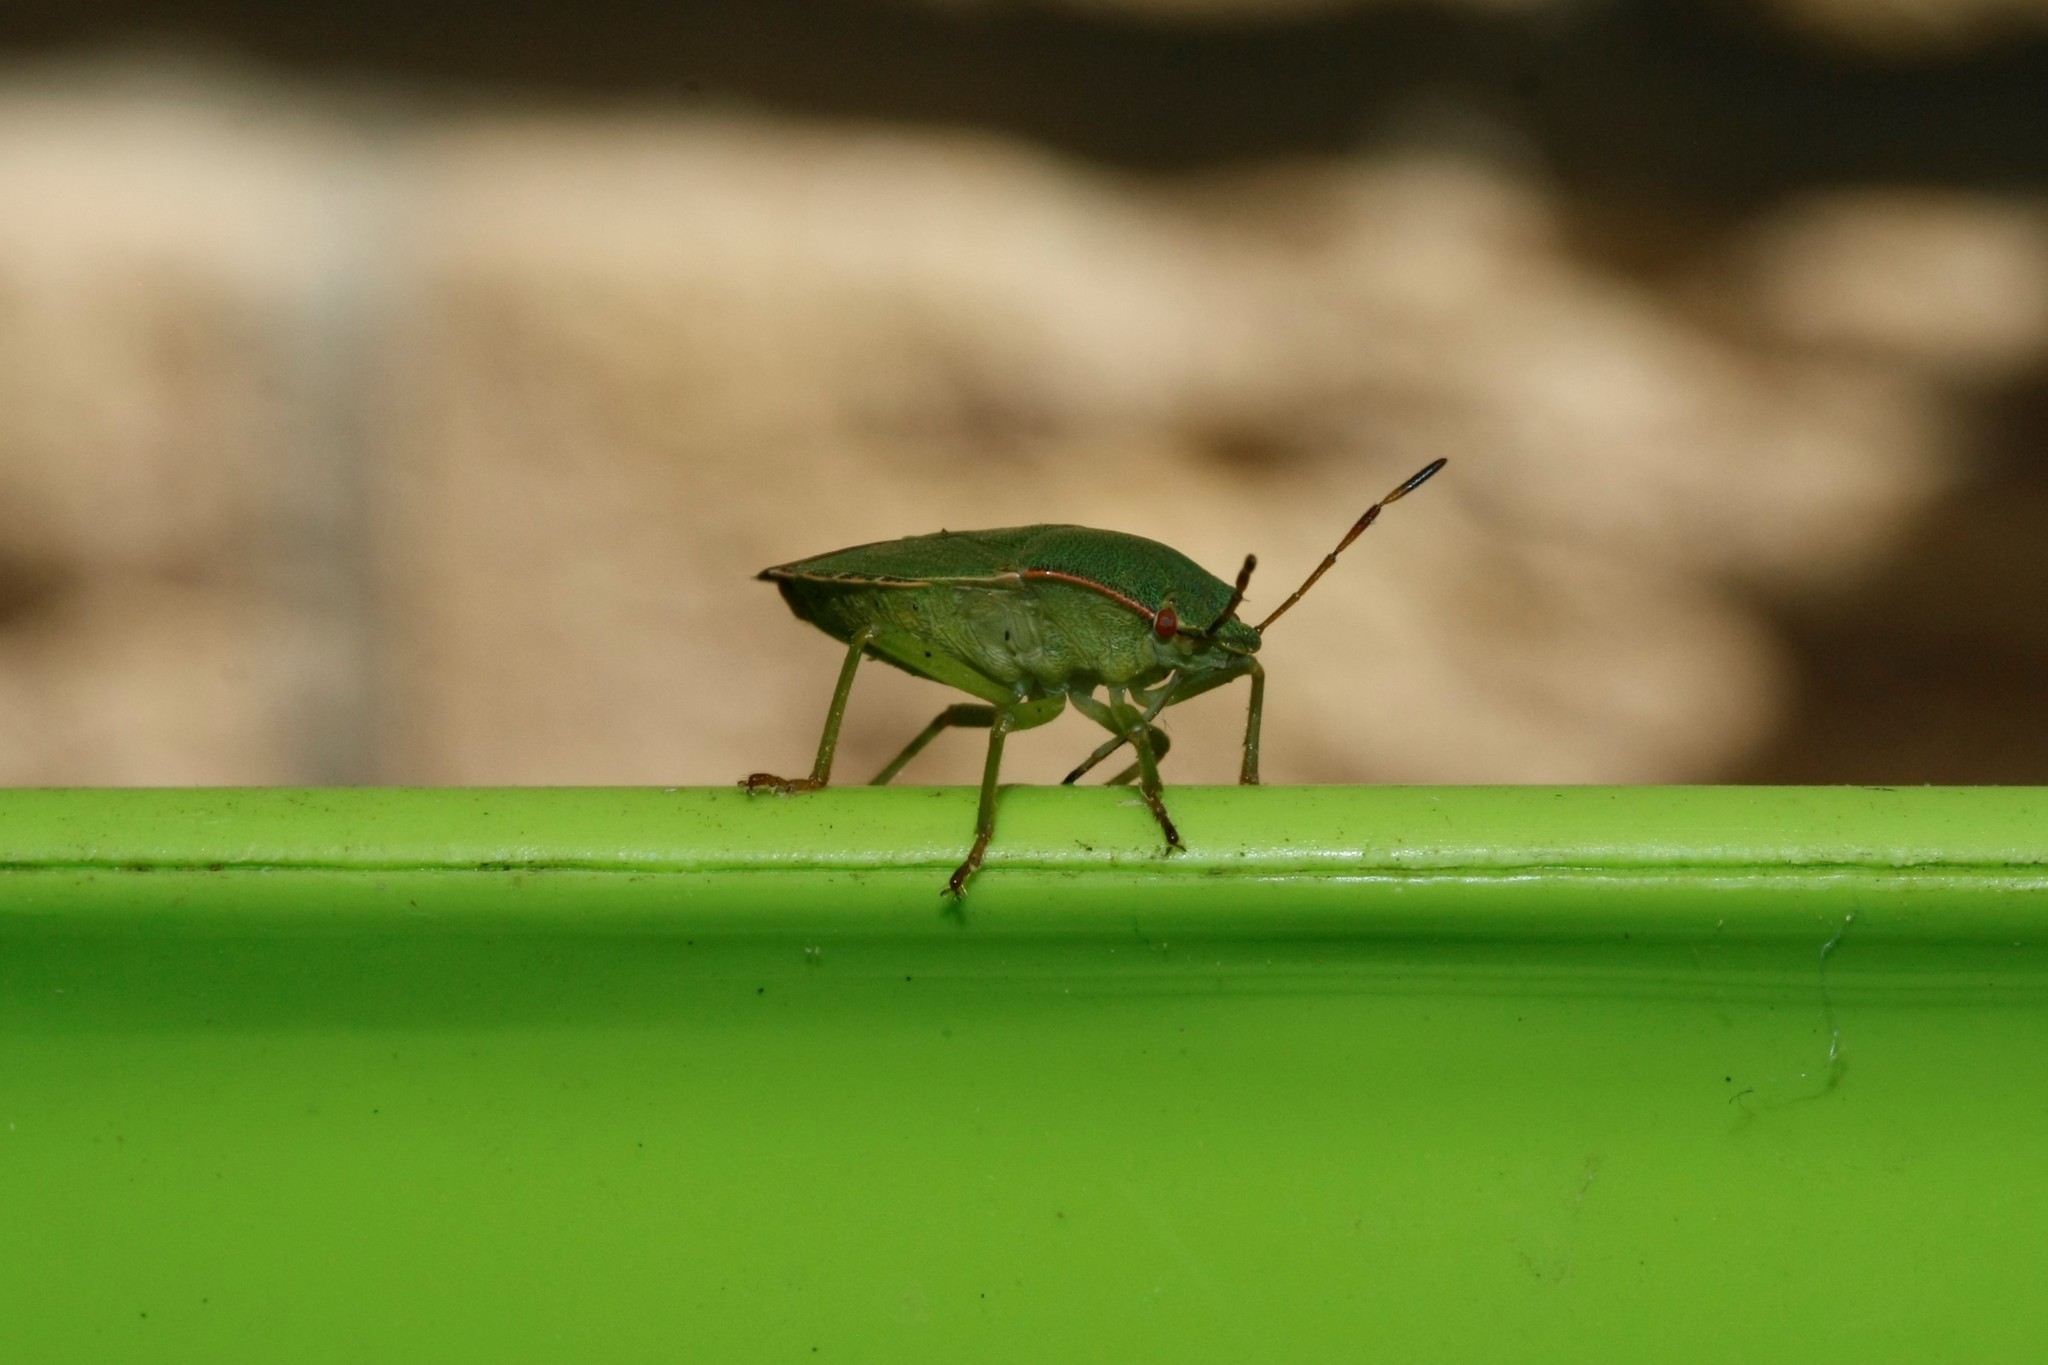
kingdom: Animalia
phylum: Arthropoda
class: Insecta
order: Hemiptera
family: Pentatomidae
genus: Palomena
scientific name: Palomena prasina
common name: Green shieldbug
